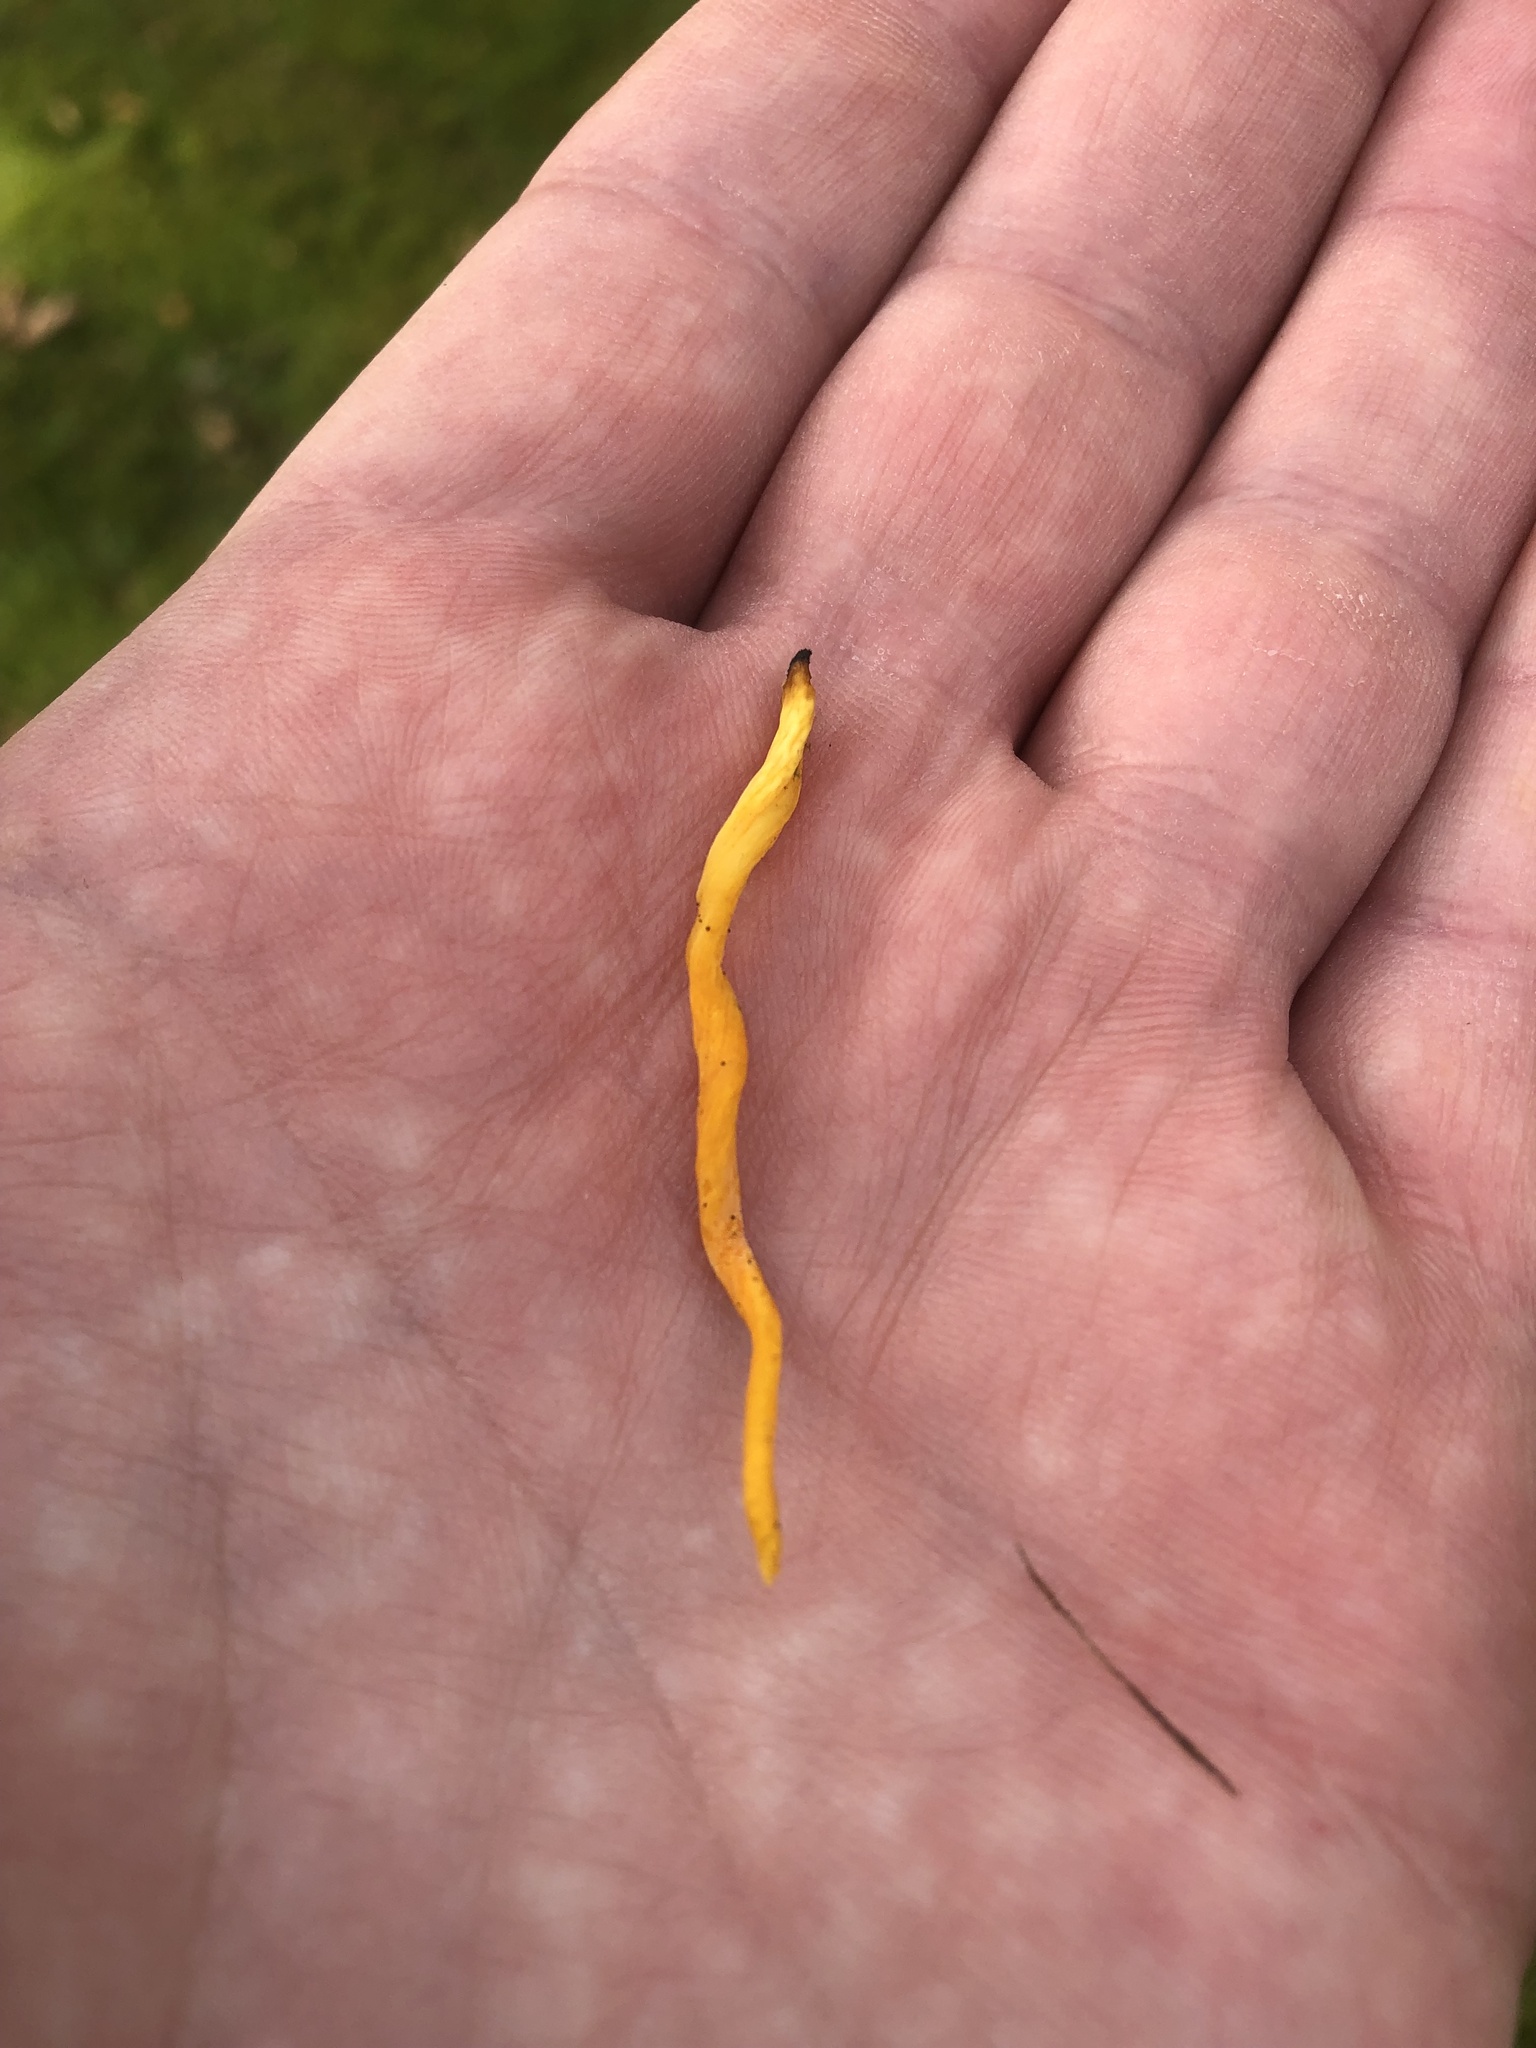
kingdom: Fungi
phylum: Basidiomycota
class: Agaricomycetes
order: Agaricales
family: Clavariaceae
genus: Clavulinopsis
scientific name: Clavulinopsis helvola
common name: Yellow club
